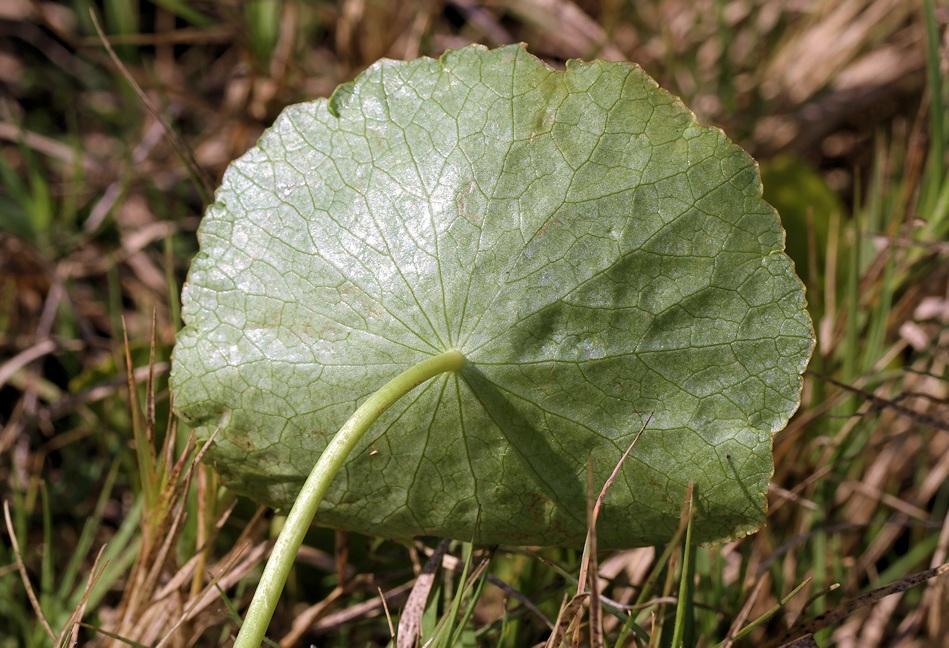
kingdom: Plantae
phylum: Tracheophyta
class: Magnoliopsida
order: Apiales
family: Araliaceae
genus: Hydrocotyle
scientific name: Hydrocotyle verticillata
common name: Whorled marshpennywort
